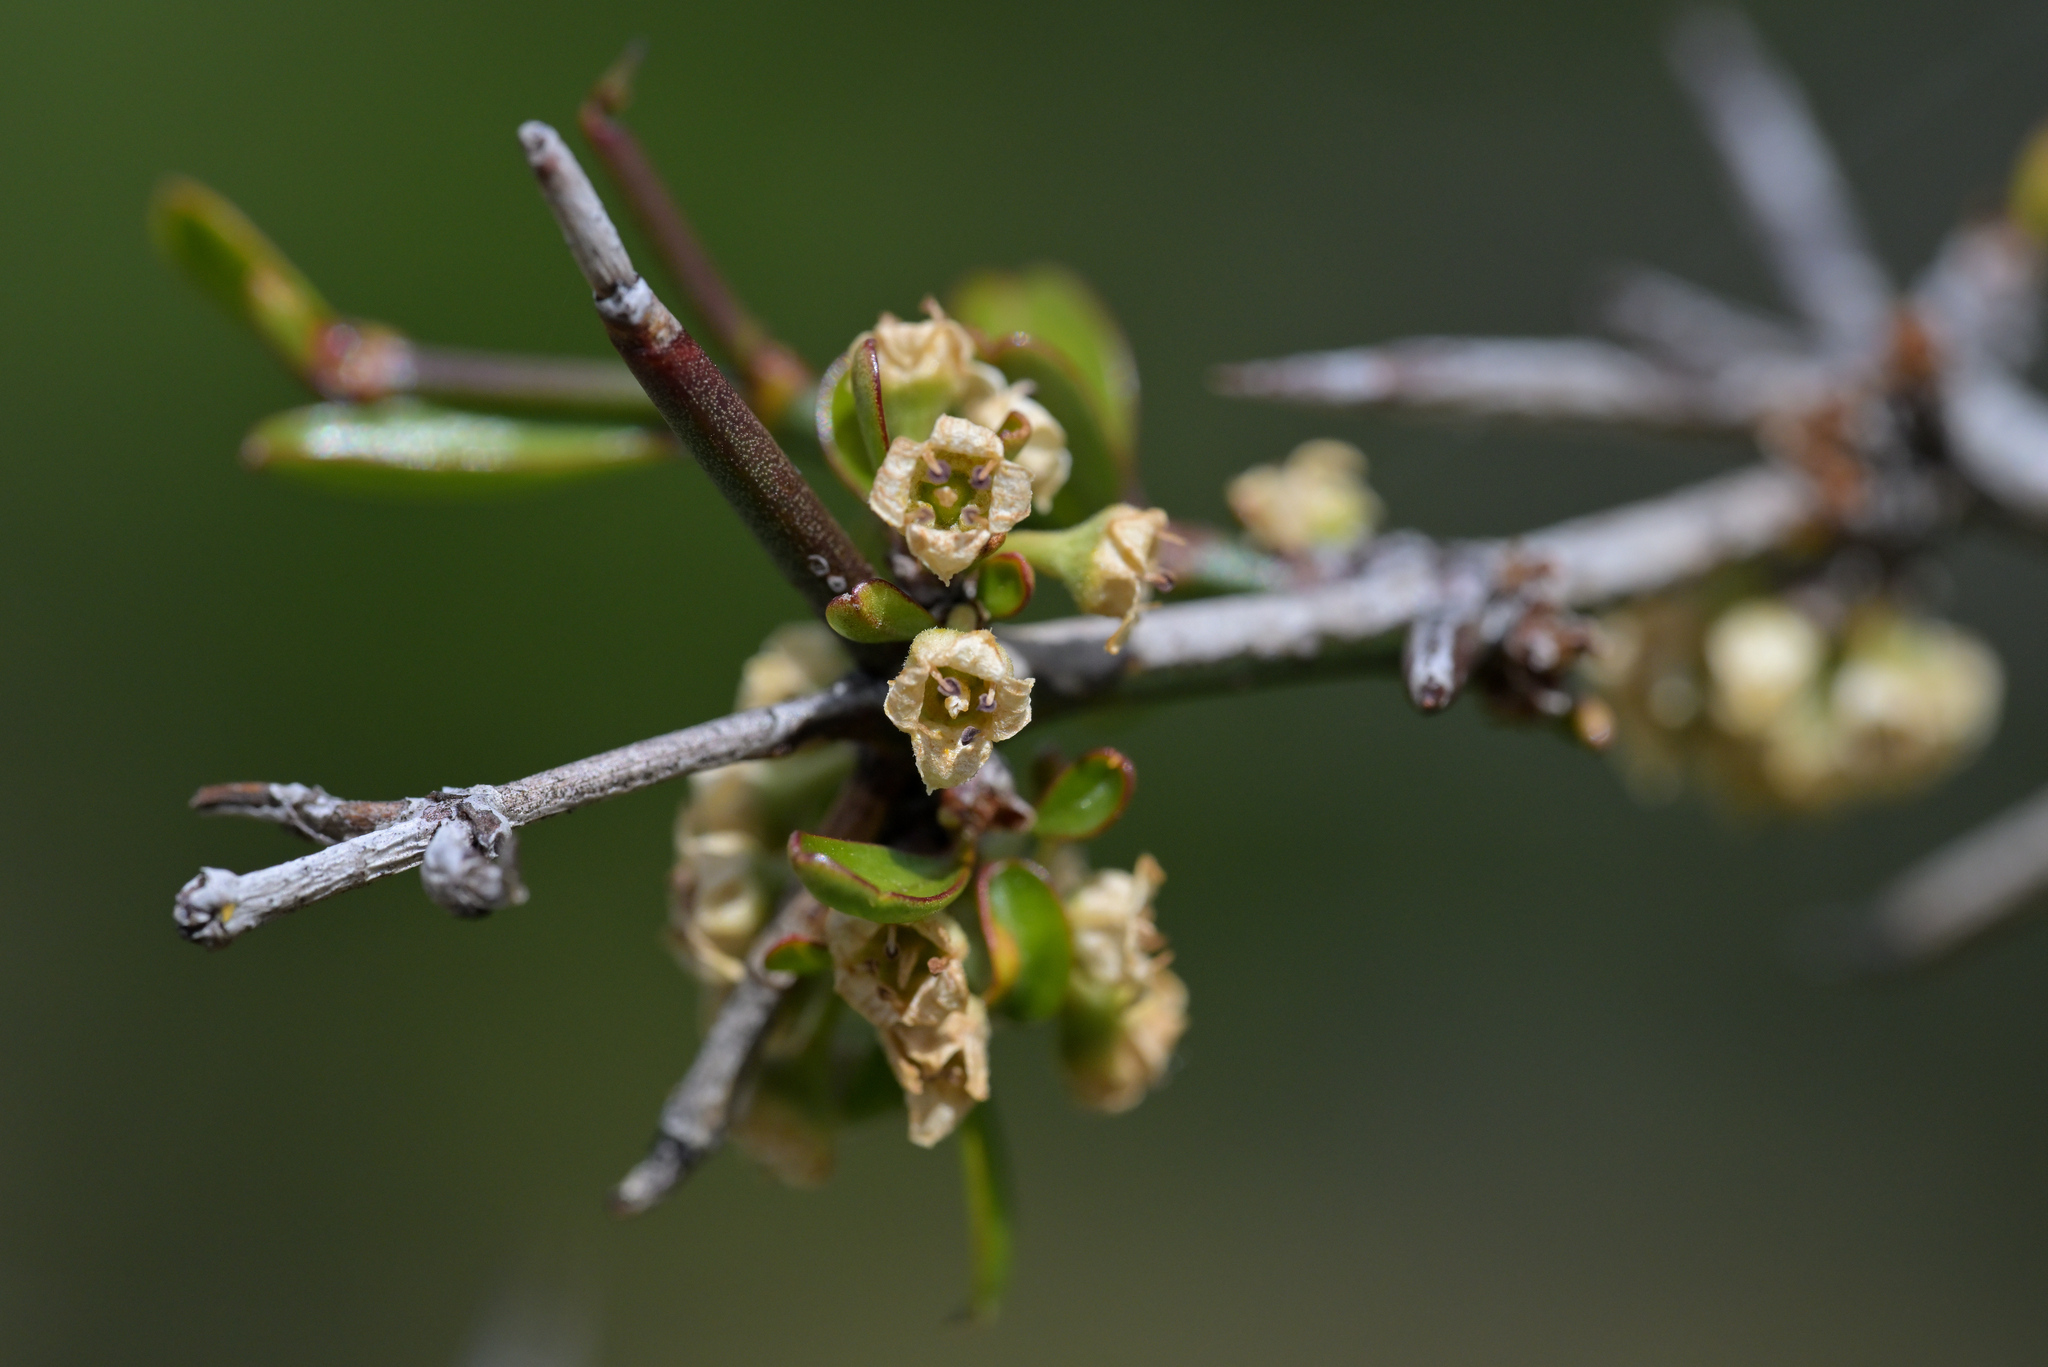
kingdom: Plantae
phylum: Tracheophyta
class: Magnoliopsida
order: Rosales
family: Rhamnaceae
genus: Discaria
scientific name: Discaria toumatou
